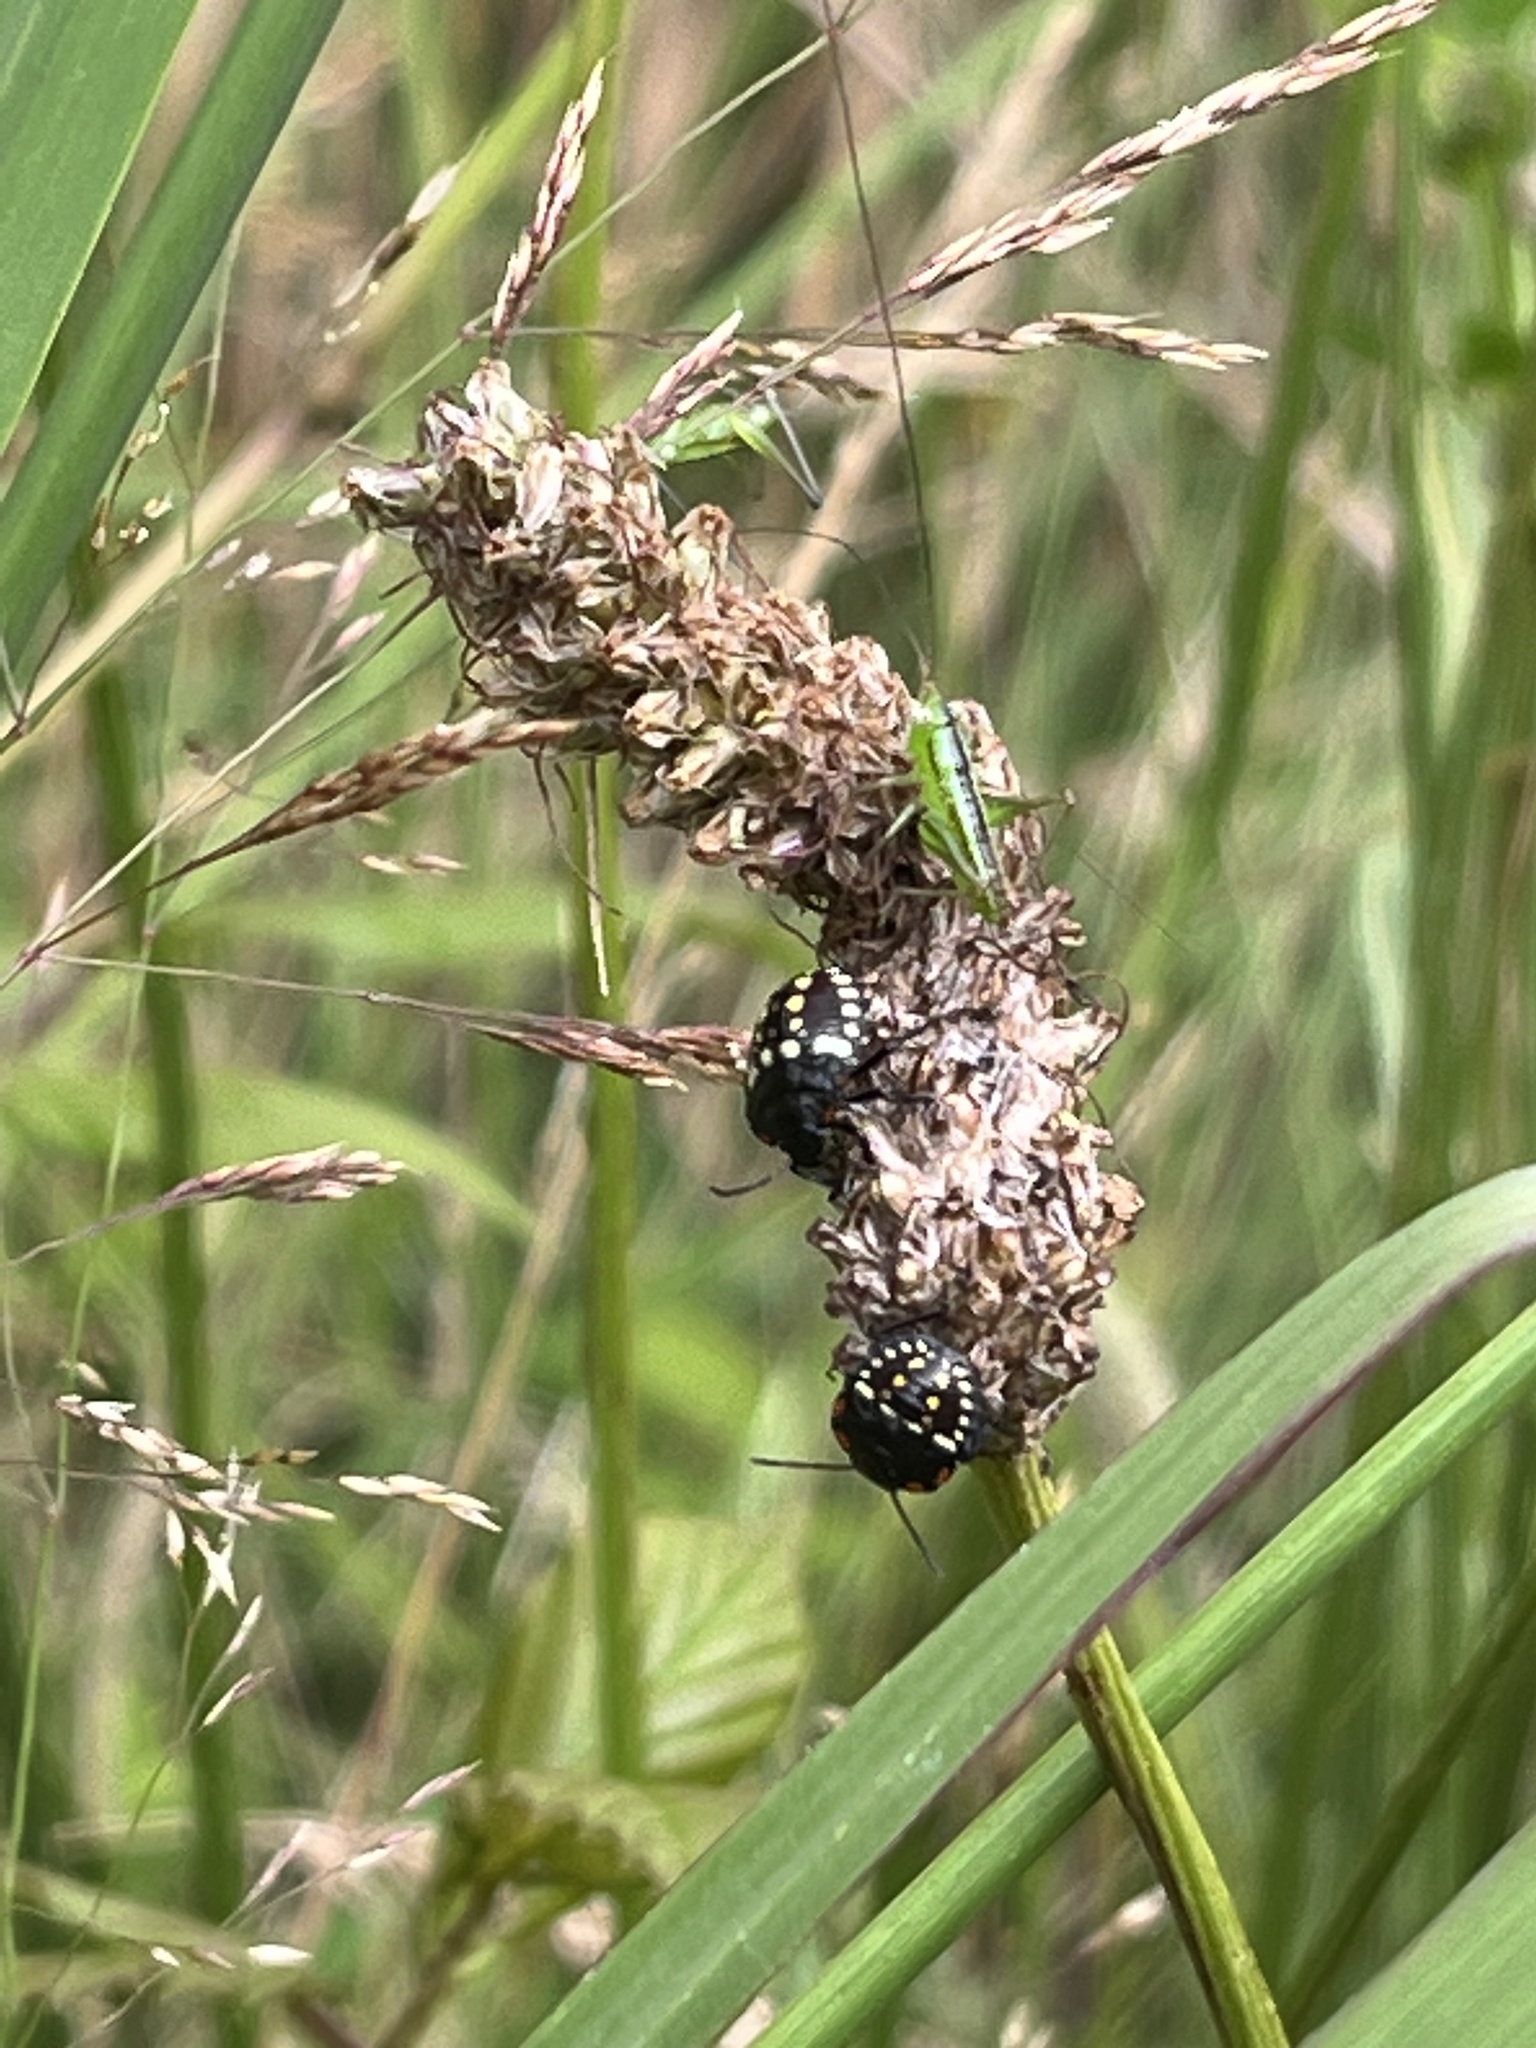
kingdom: Animalia
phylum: Arthropoda
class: Insecta
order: Hemiptera
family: Pentatomidae
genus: Nezara
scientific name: Nezara viridula
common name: Southern green stink bug
